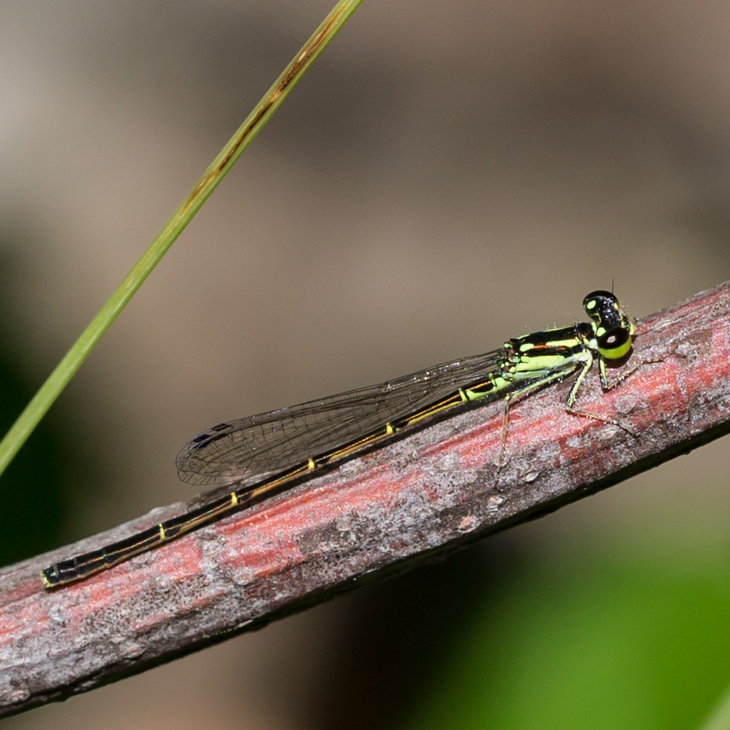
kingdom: Animalia
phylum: Arthropoda
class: Insecta
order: Odonata
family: Coenagrionidae
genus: Ischnura
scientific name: Ischnura posita
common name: Fragile forktail
